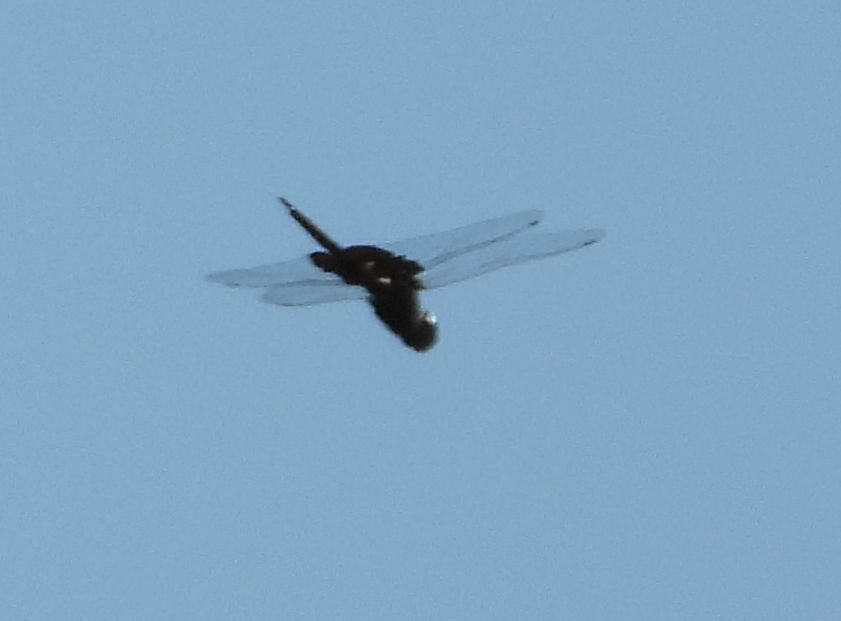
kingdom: Animalia
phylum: Arthropoda
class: Insecta
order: Odonata
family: Libellulidae
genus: Tramea
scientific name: Tramea lacerata
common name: Black saddlebags
